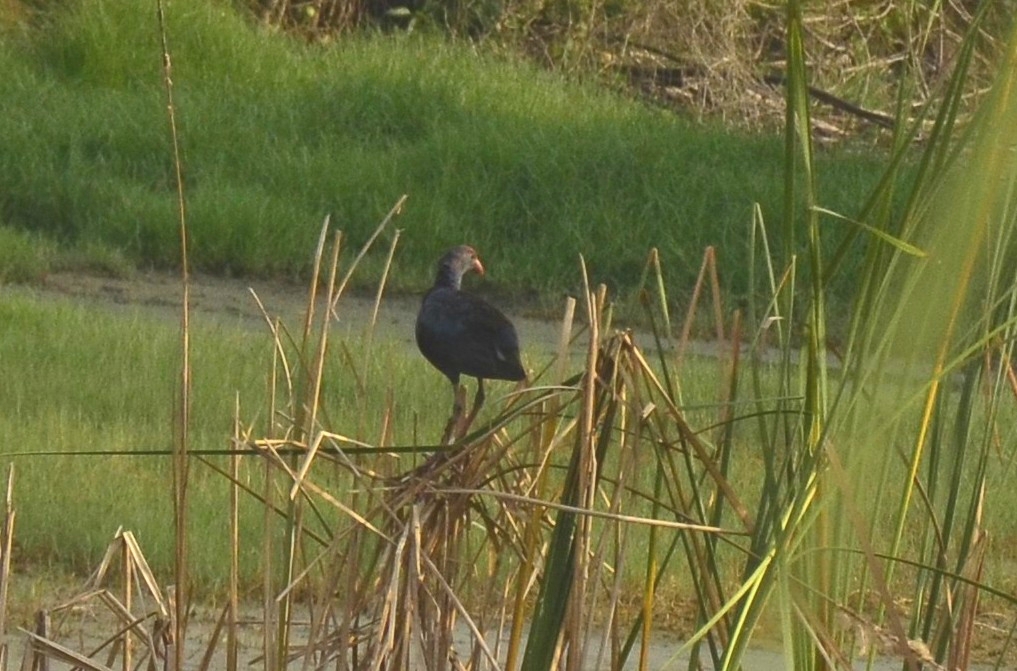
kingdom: Animalia
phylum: Chordata
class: Aves
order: Gruiformes
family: Rallidae
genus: Porphyrio
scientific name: Porphyrio porphyrio
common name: Purple swamphen
